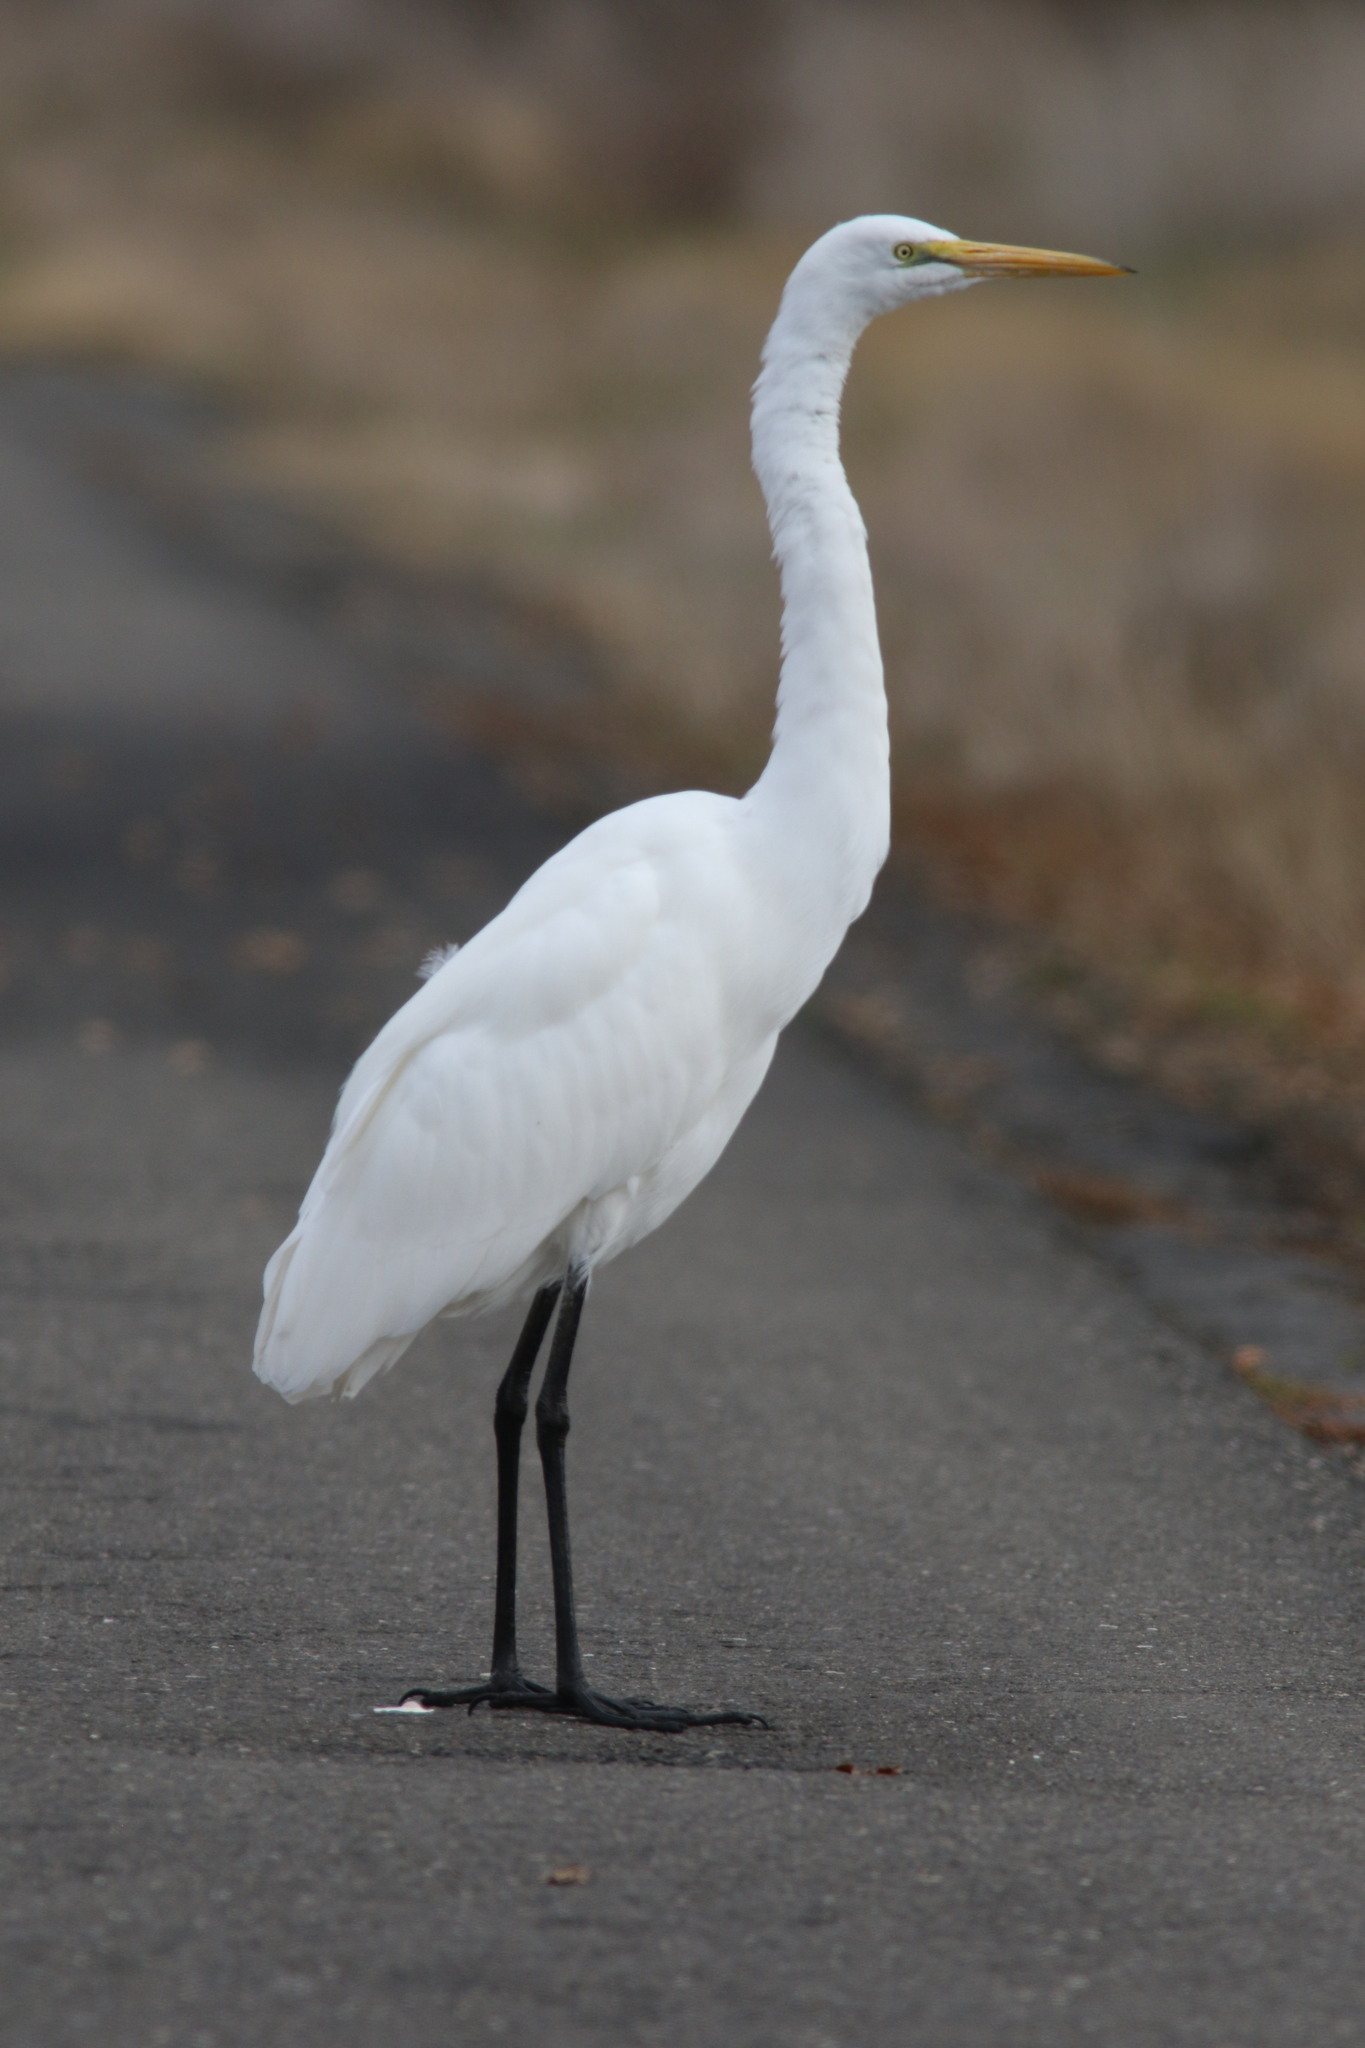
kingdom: Animalia
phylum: Chordata
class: Aves
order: Pelecaniformes
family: Ardeidae
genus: Ardea
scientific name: Ardea alba
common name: Great egret
